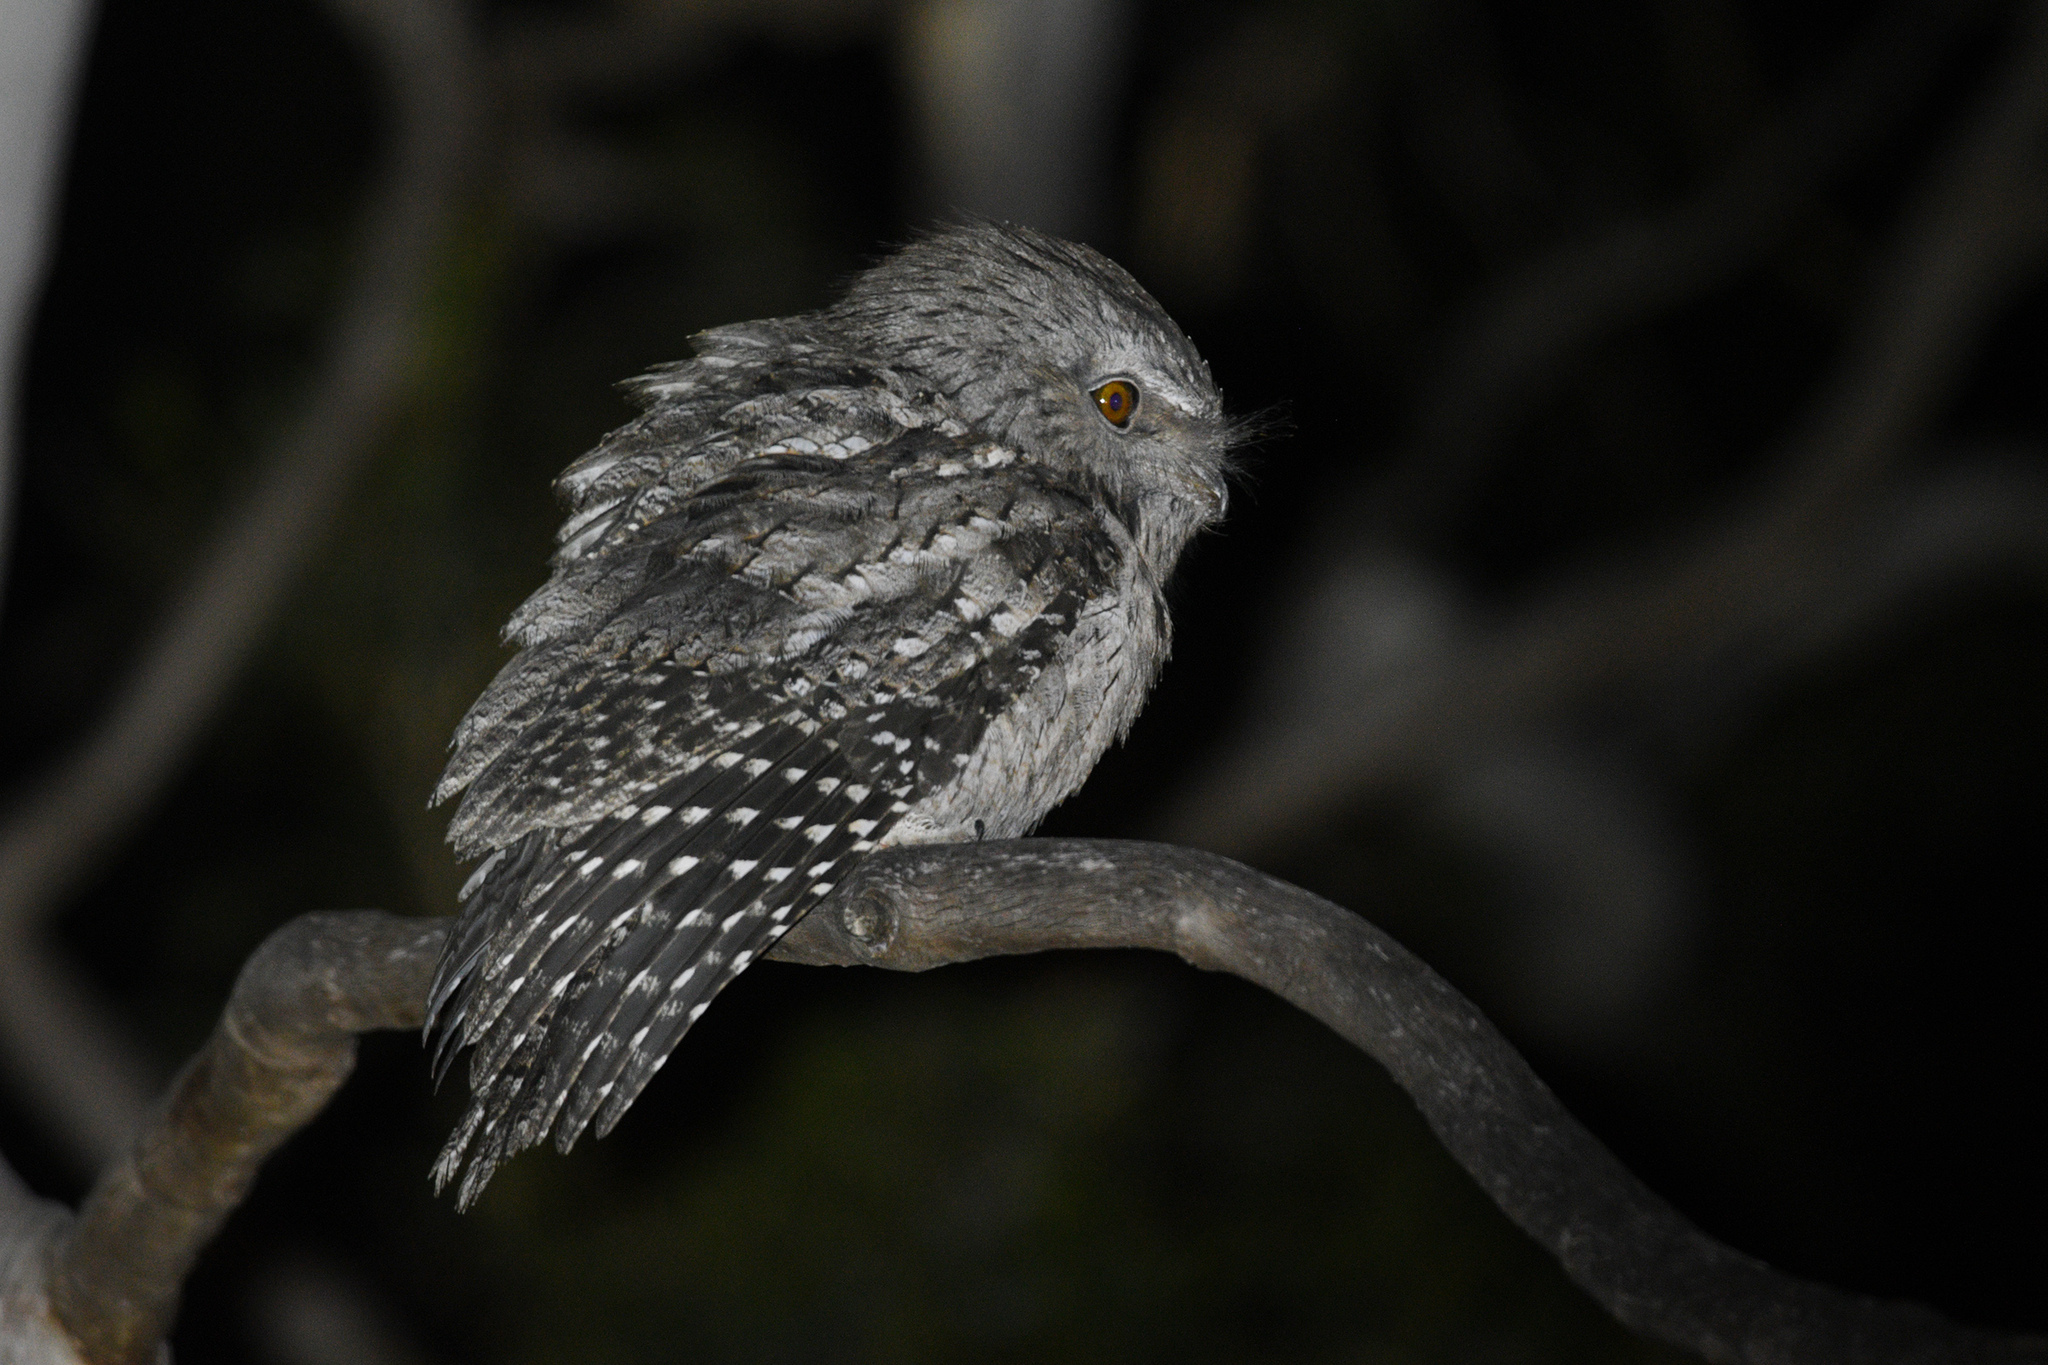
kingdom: Animalia
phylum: Chordata
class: Aves
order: Caprimulgiformes
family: Podargidae
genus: Podargus
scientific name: Podargus strigoides
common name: Tawny frogmouth
